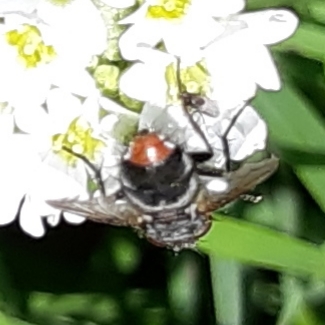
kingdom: Animalia
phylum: Arthropoda
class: Insecta
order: Diptera
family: Tachinidae
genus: Peleteria
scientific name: Peleteria anaxias
